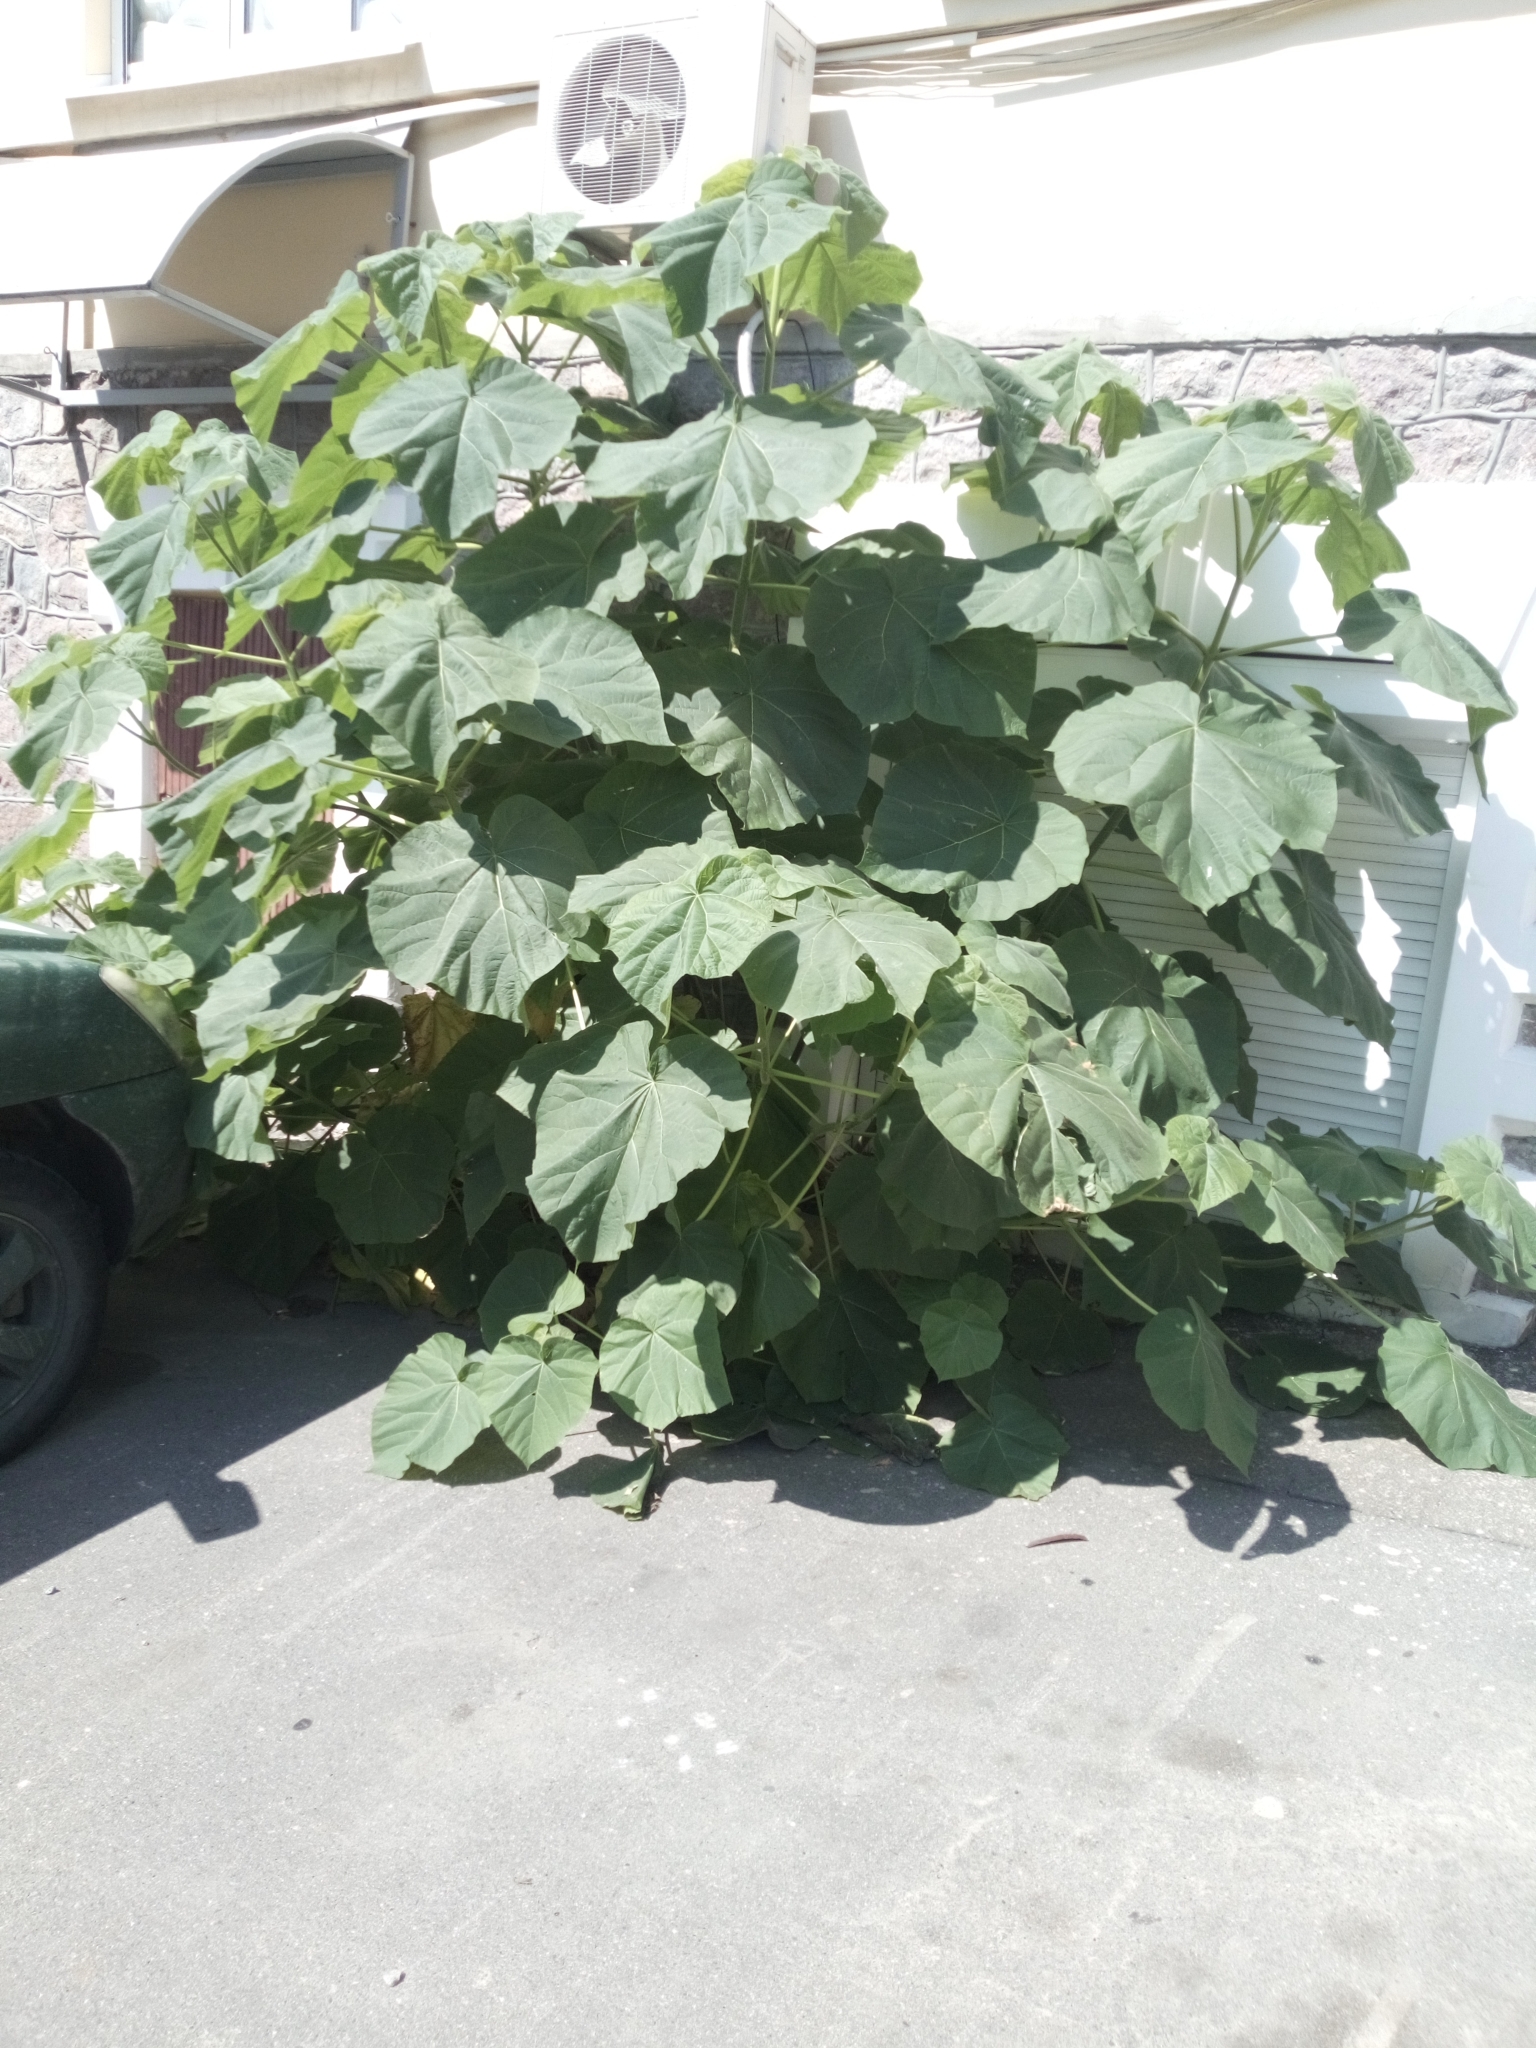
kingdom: Plantae
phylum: Tracheophyta
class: Magnoliopsida
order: Lamiales
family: Paulowniaceae
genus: Paulownia
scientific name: Paulownia tomentosa
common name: Foxglove-tree
